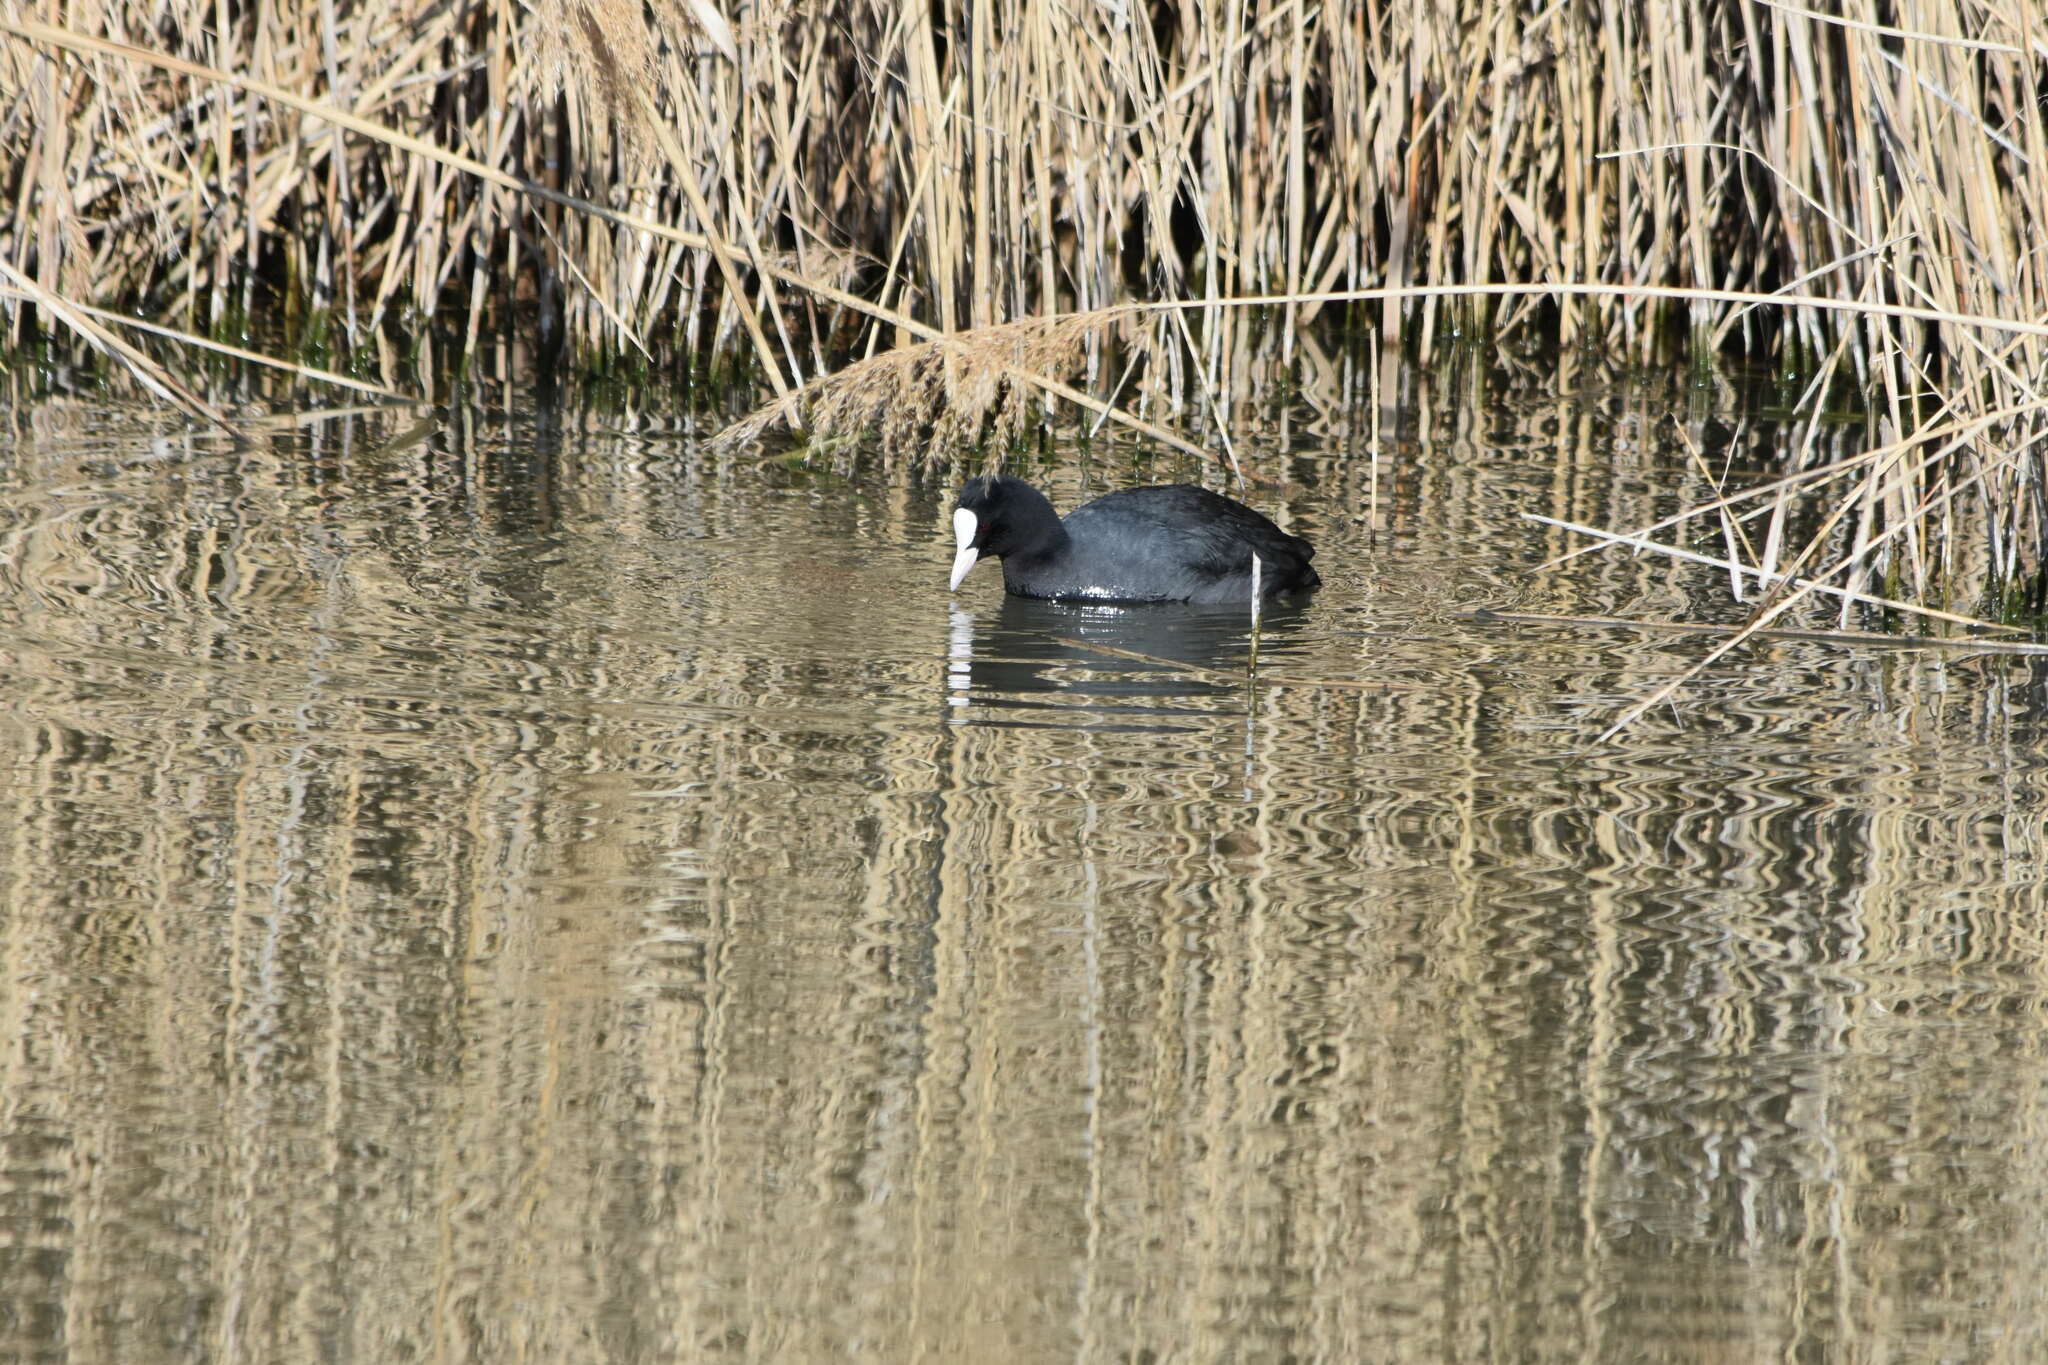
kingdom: Animalia
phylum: Chordata
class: Aves
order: Gruiformes
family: Rallidae
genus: Fulica
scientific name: Fulica atra
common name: Eurasian coot
